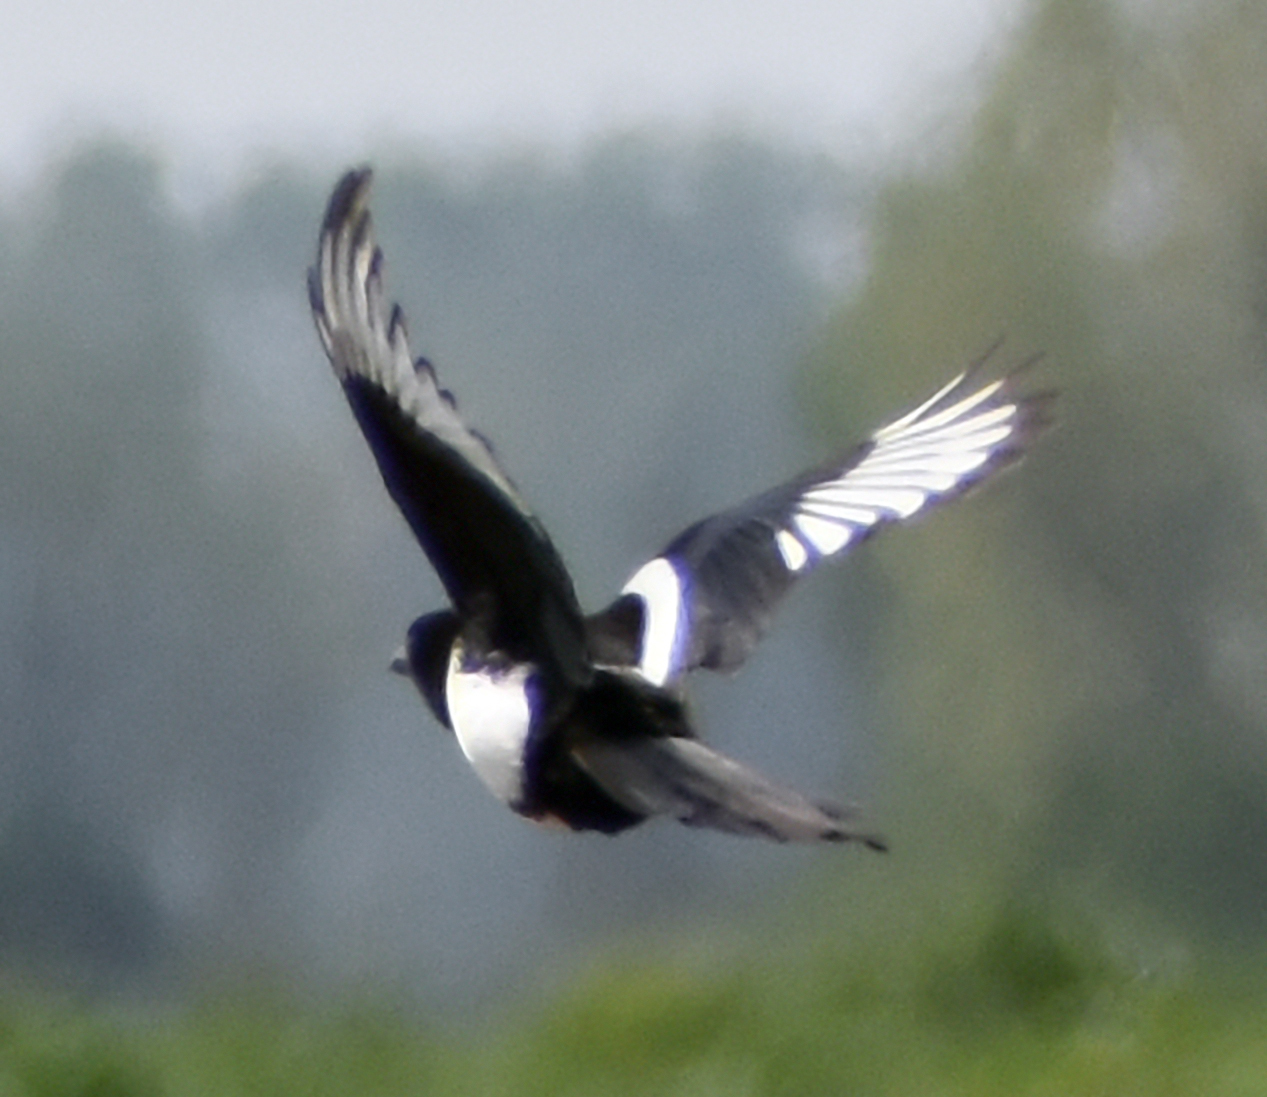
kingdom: Animalia
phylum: Chordata
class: Aves
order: Passeriformes
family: Corvidae
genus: Pica
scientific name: Pica pica
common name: Eurasian magpie
